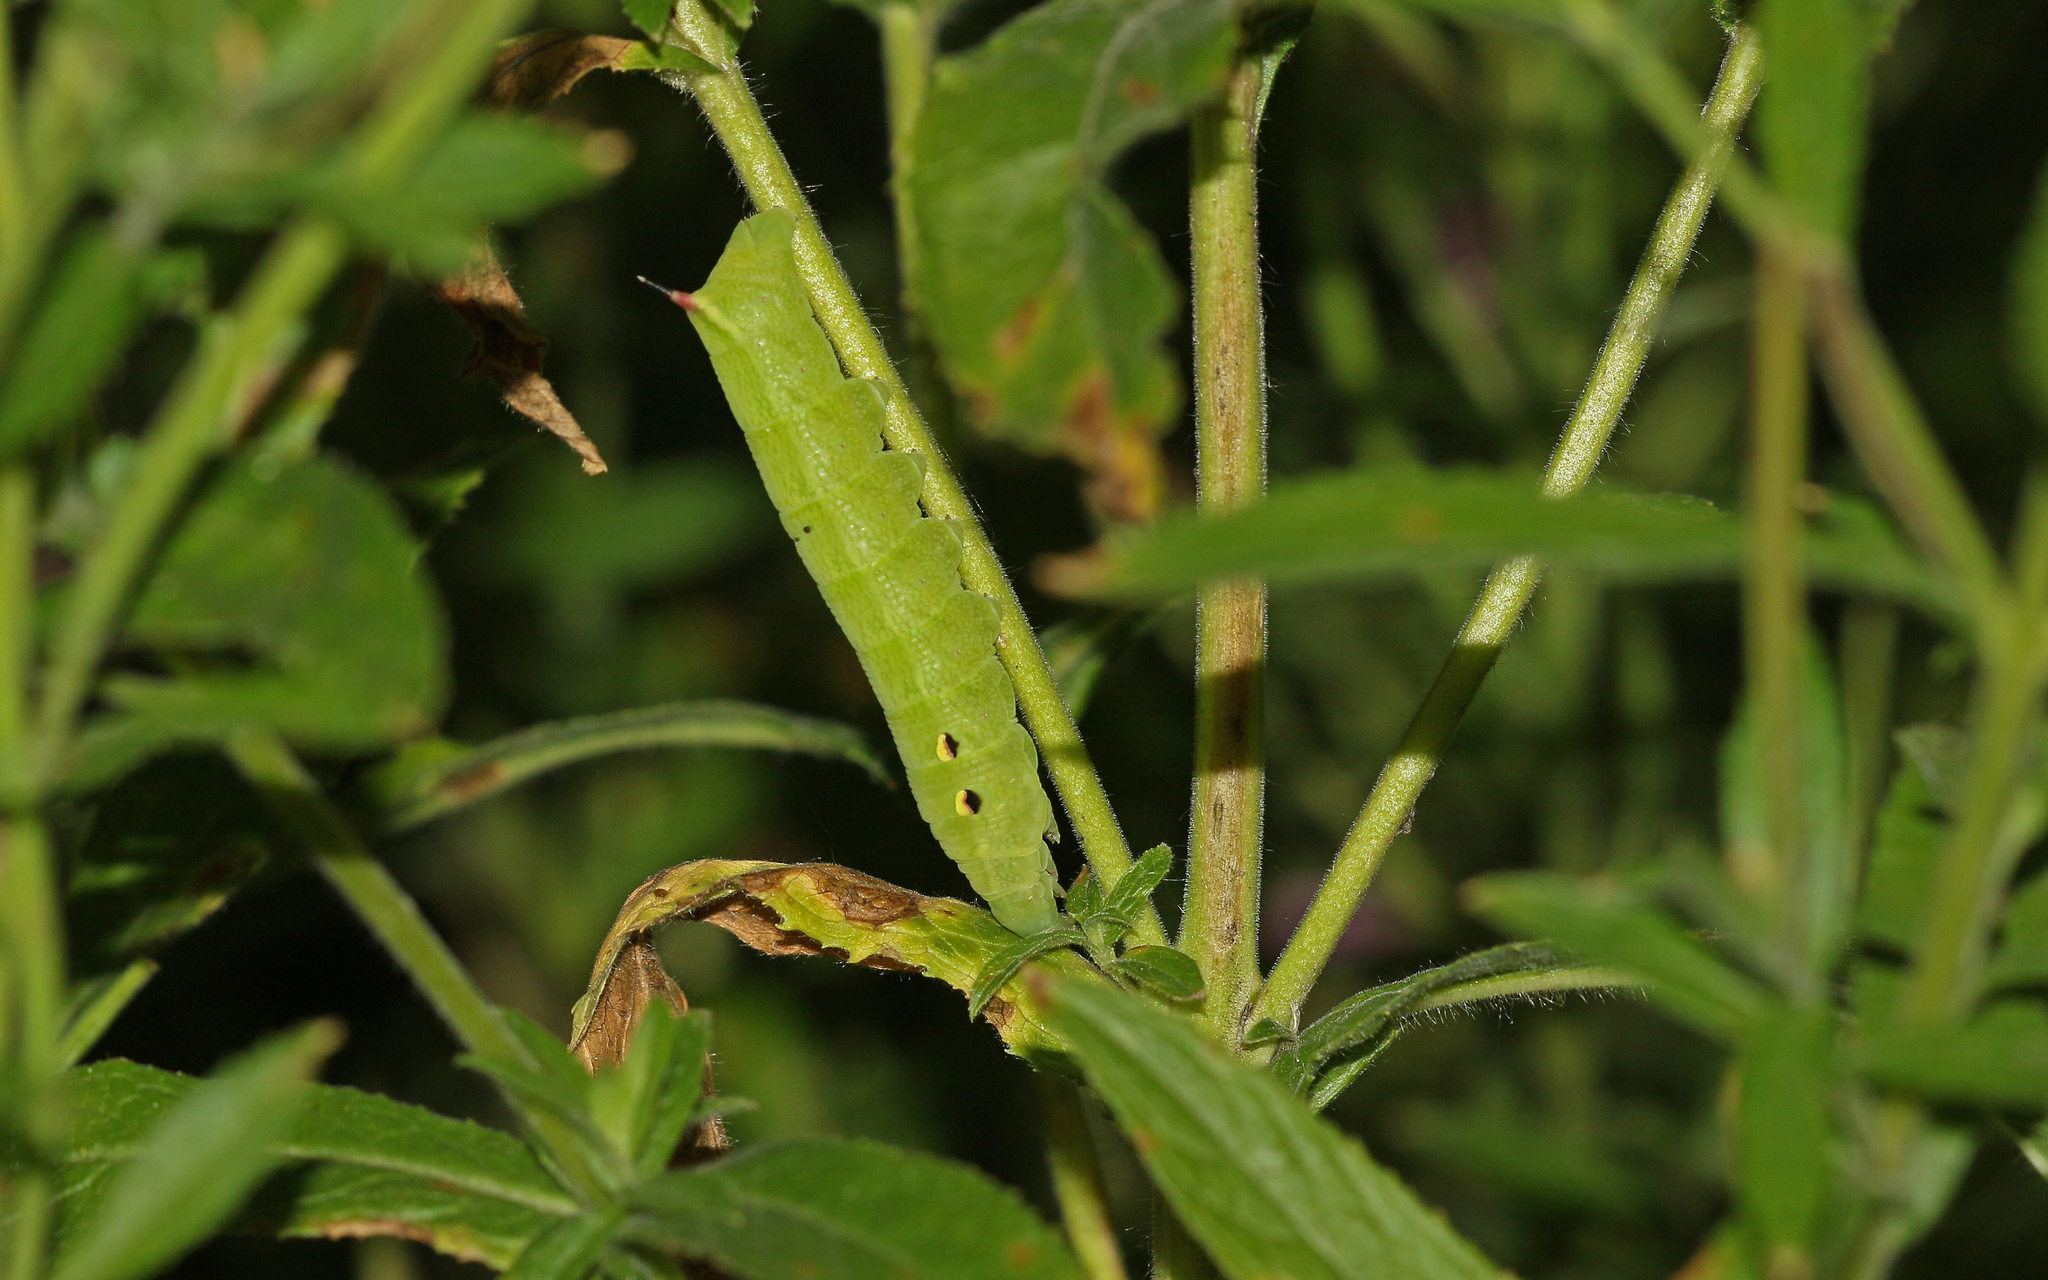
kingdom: Animalia
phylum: Arthropoda
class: Insecta
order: Lepidoptera
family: Sphingidae
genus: Deilephila
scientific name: Deilephila elpenor
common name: Elephant hawk-moth
